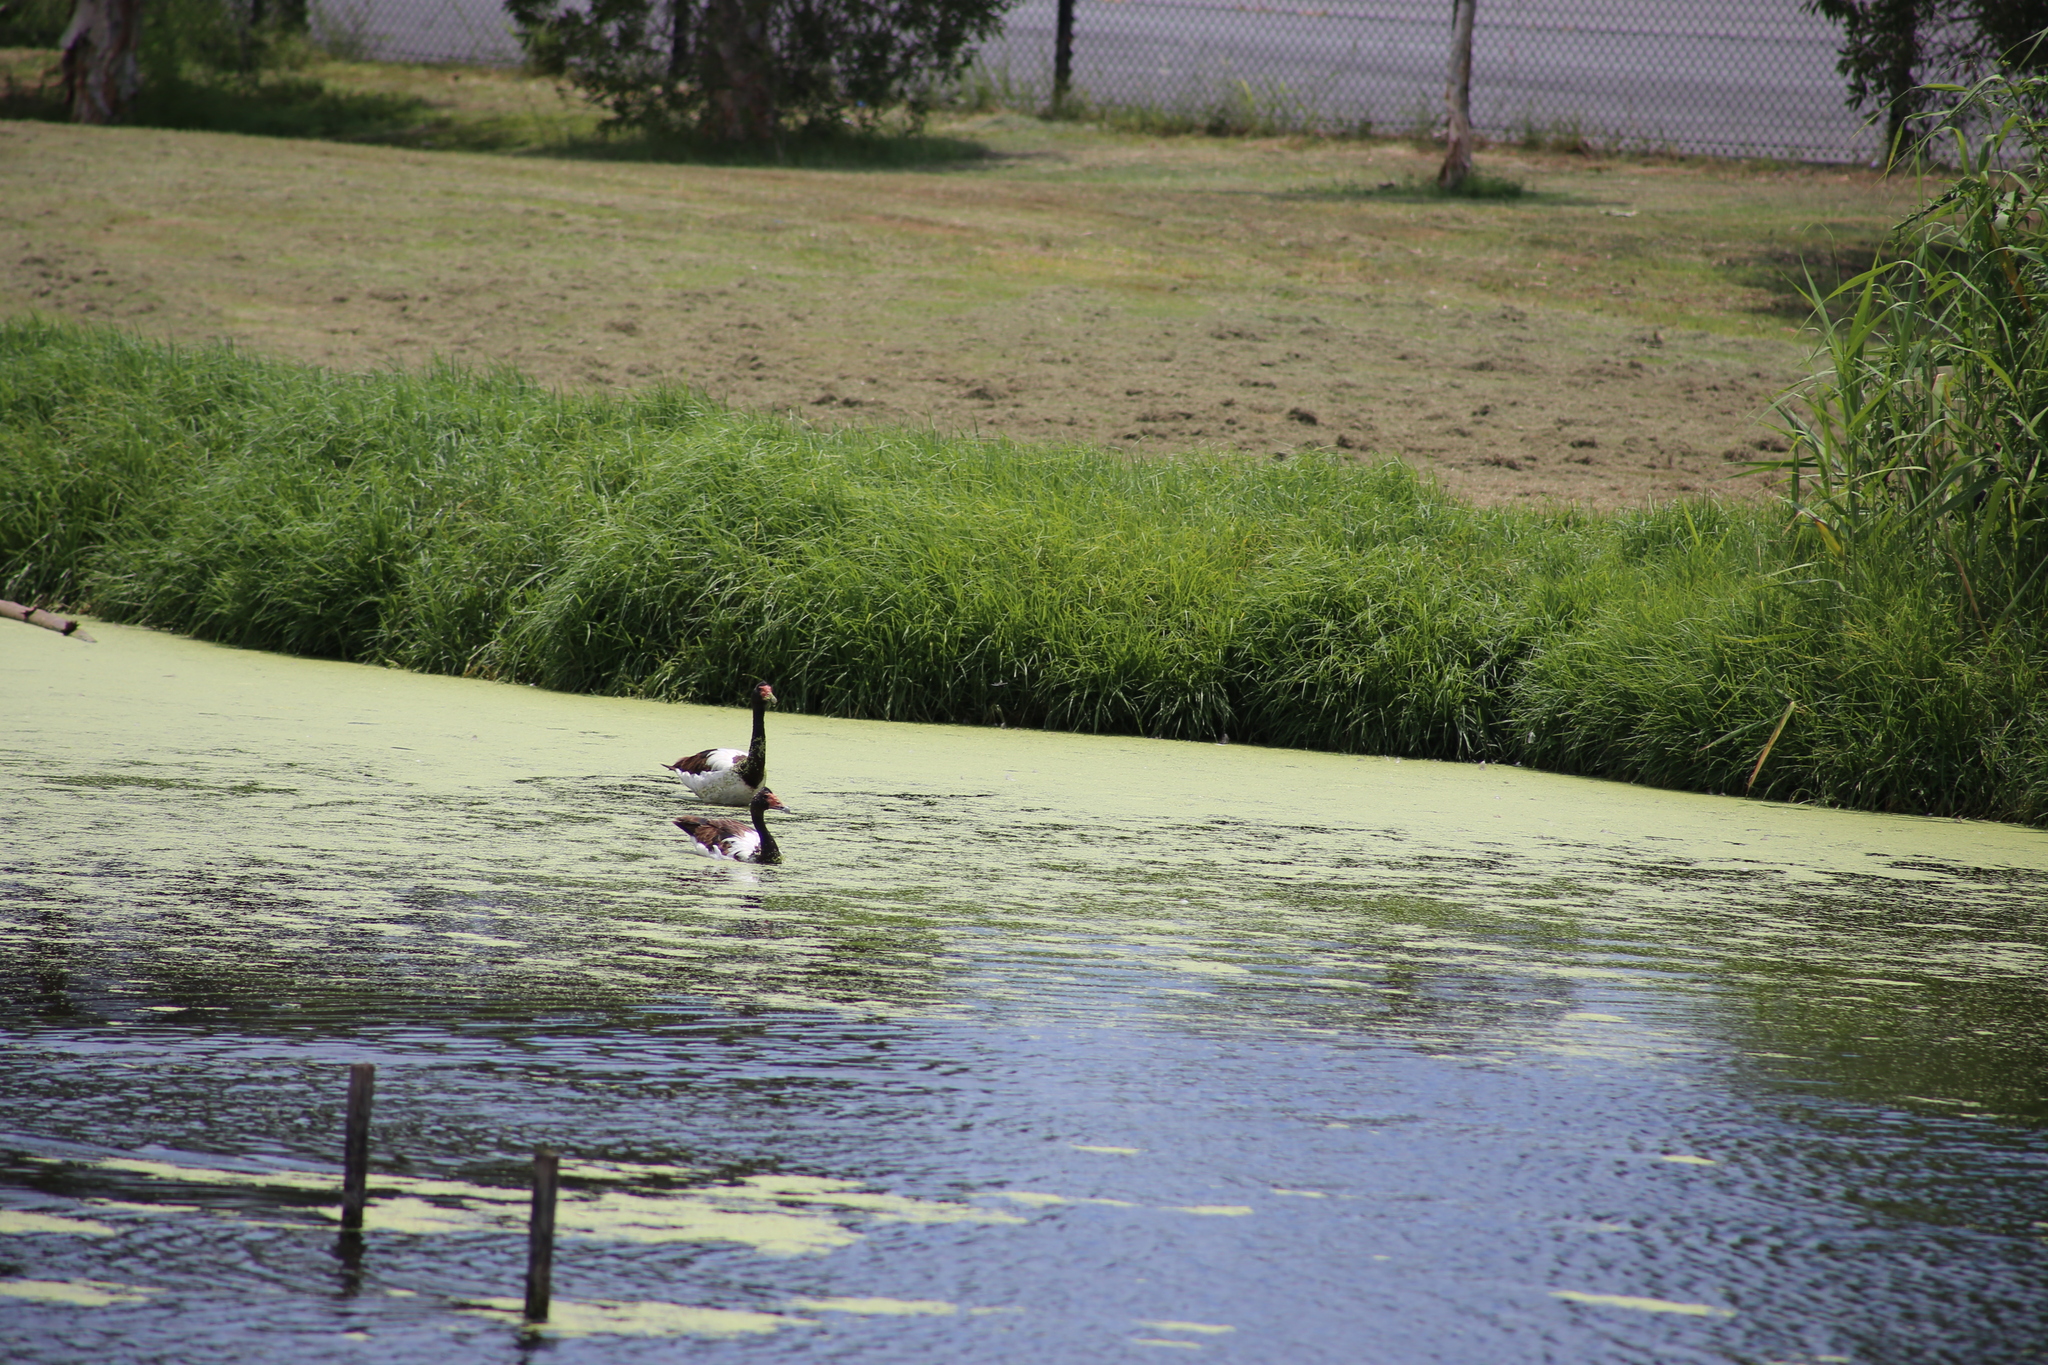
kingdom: Animalia
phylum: Chordata
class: Aves
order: Anseriformes
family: Anseranatidae
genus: Anseranas
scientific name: Anseranas semipalmata
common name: Magpie goose
